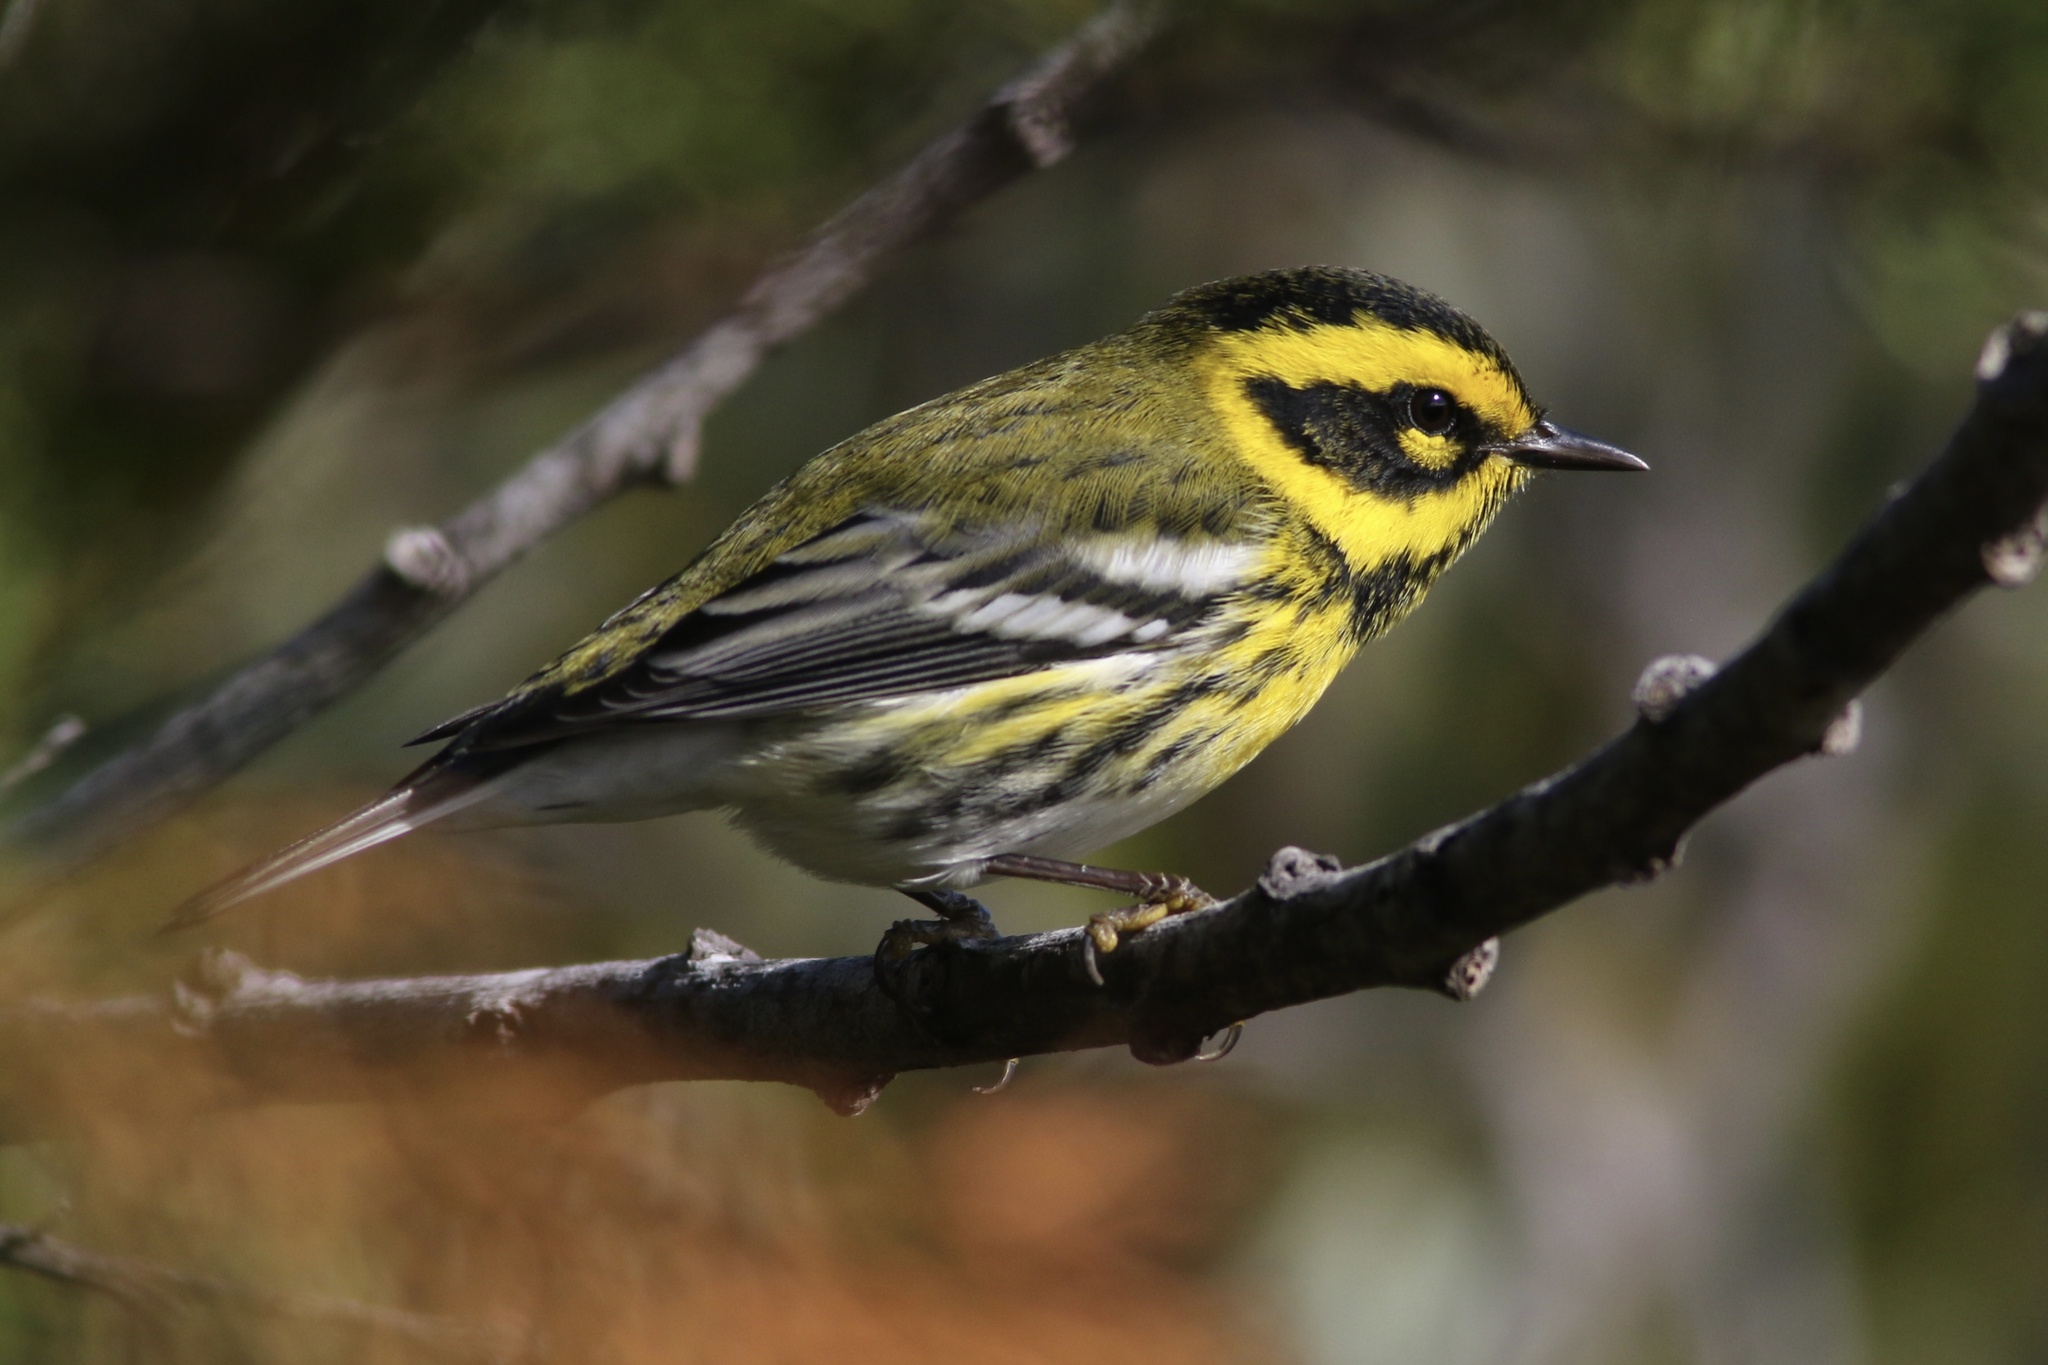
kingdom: Animalia
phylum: Chordata
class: Aves
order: Passeriformes
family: Parulidae
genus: Setophaga
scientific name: Setophaga townsendi
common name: Townsend's warbler
